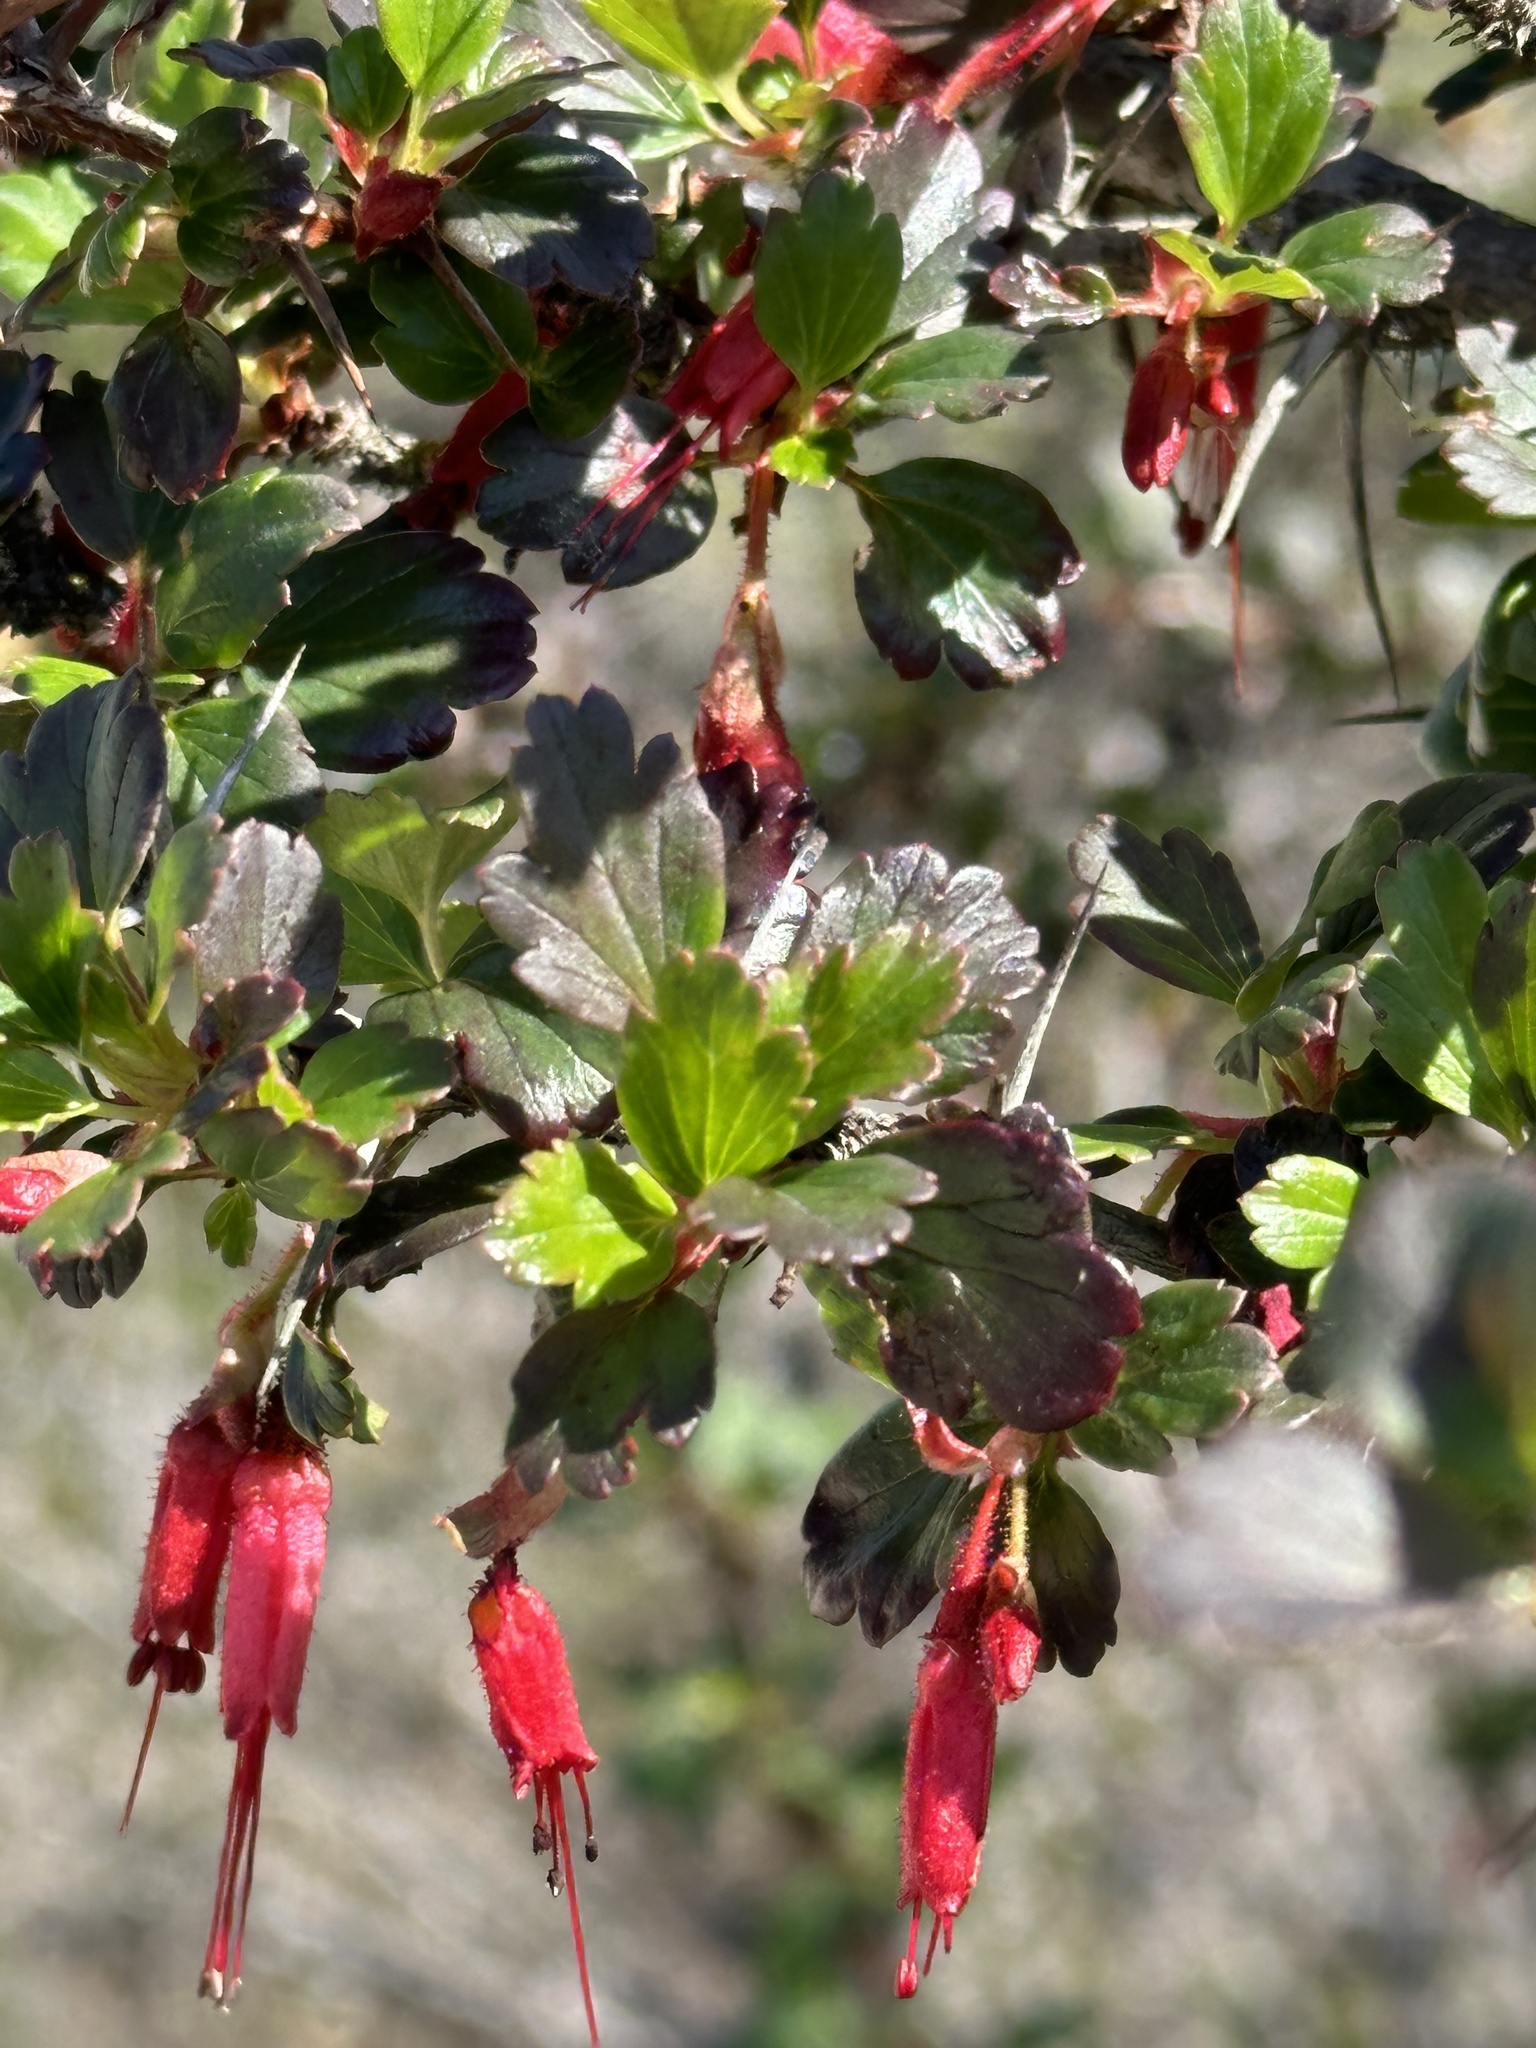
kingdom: Plantae
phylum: Tracheophyta
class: Magnoliopsida
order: Saxifragales
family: Grossulariaceae
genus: Ribes
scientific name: Ribes speciosum
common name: Fuchsia-flower gooseberry
